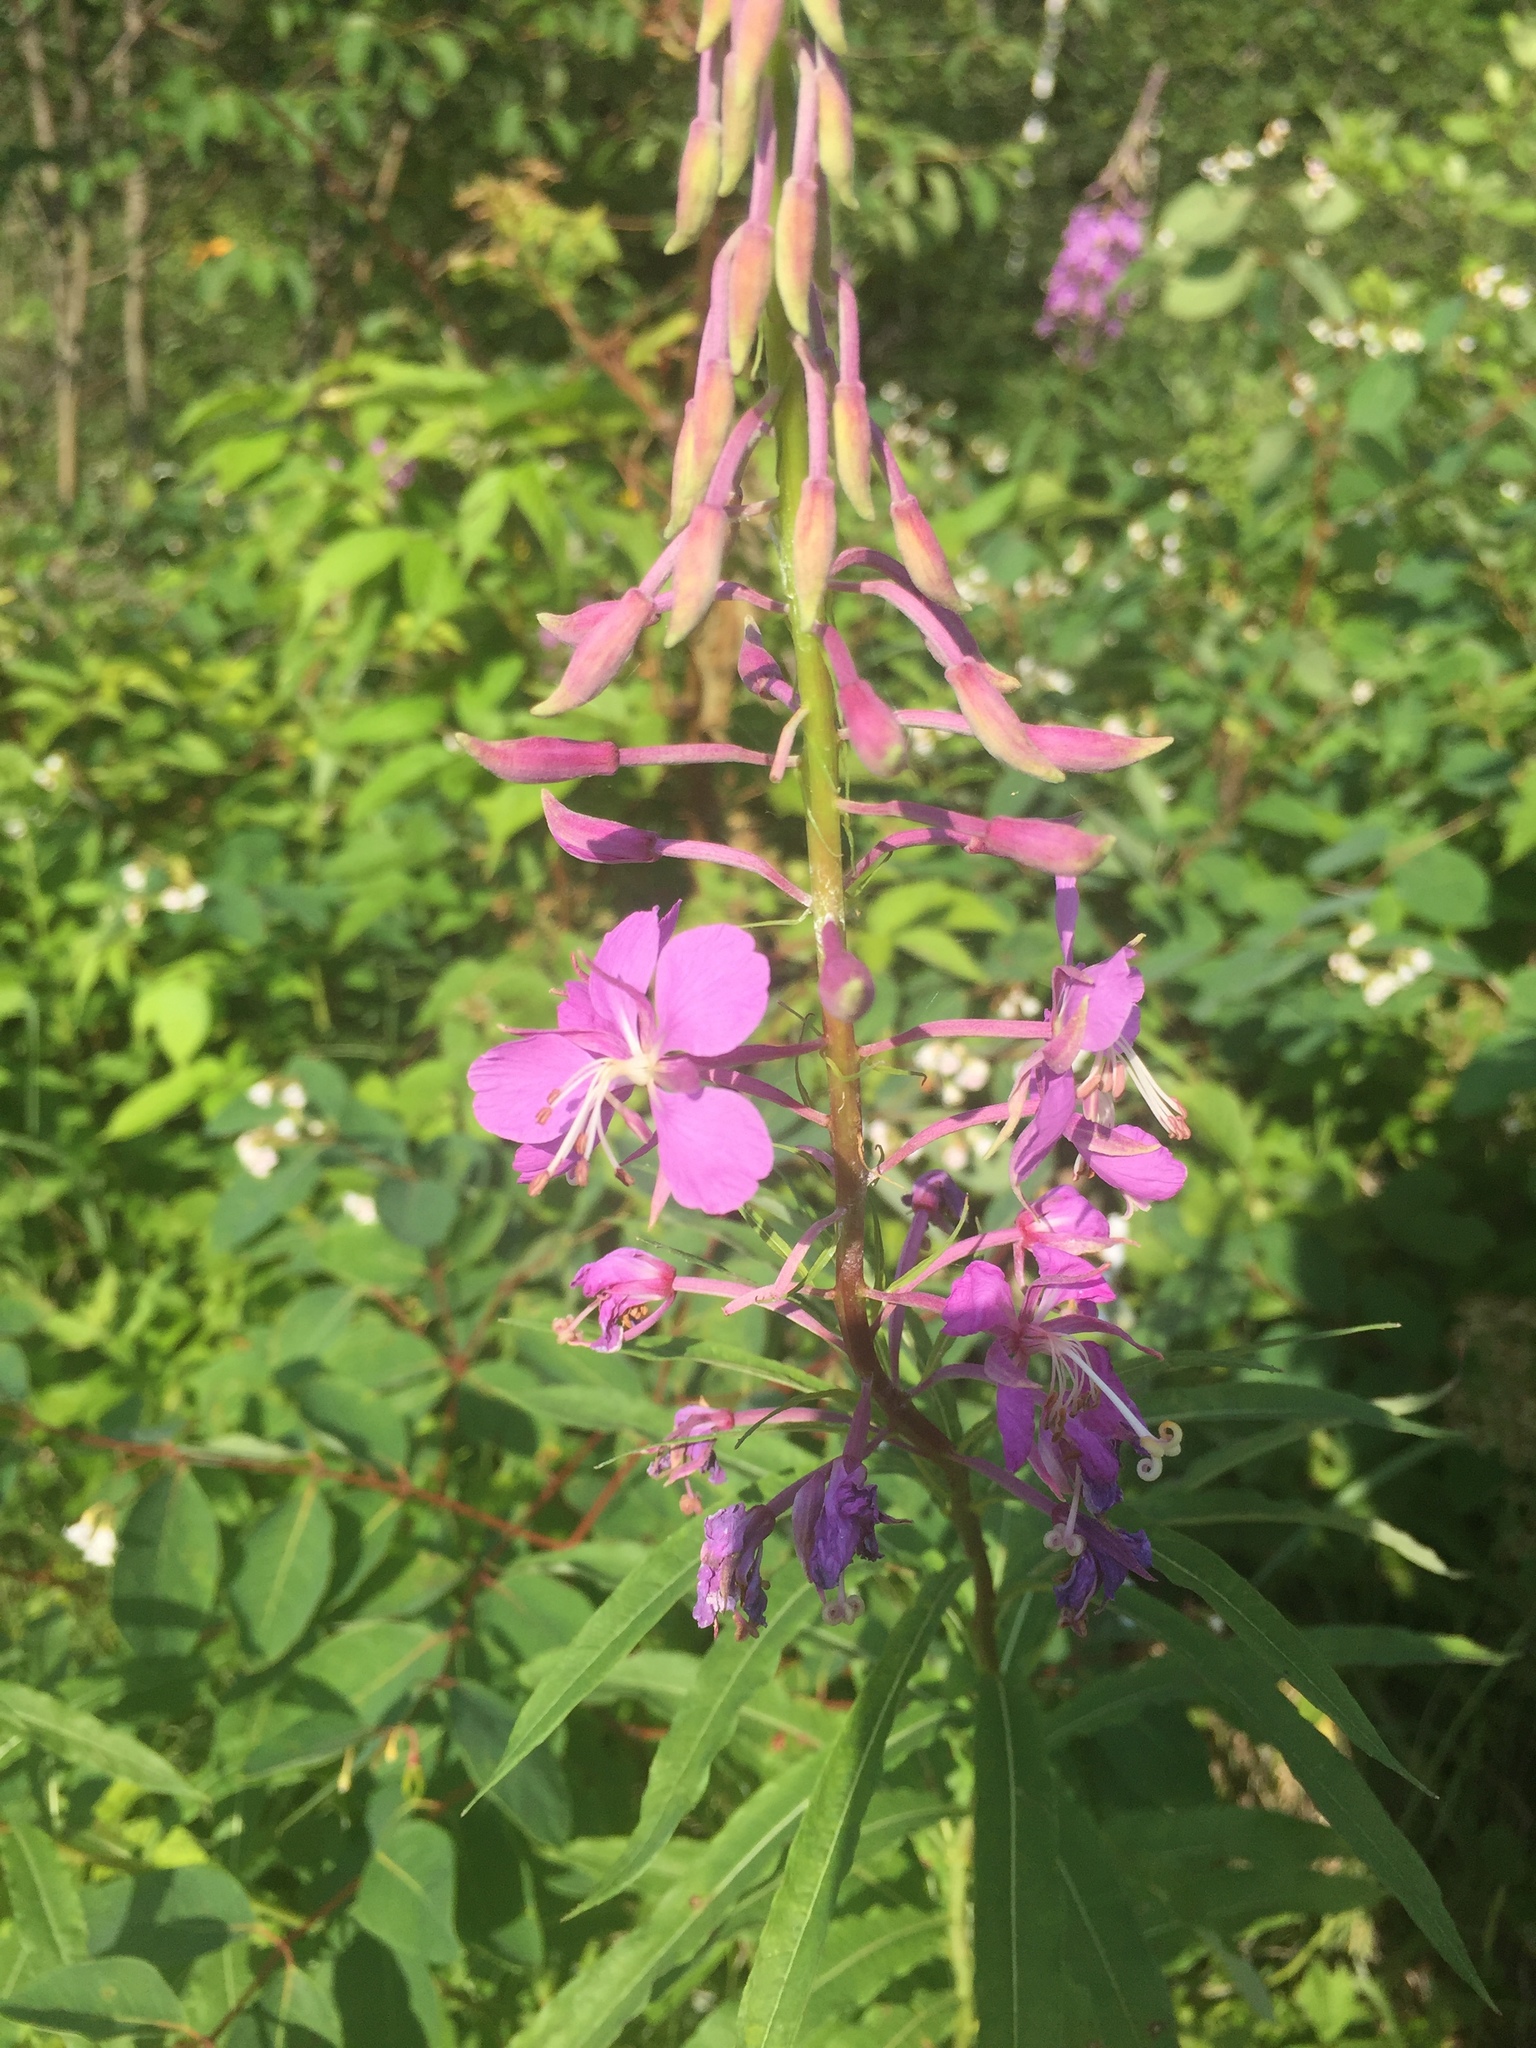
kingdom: Plantae
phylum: Tracheophyta
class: Magnoliopsida
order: Myrtales
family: Onagraceae
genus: Chamaenerion
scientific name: Chamaenerion angustifolium
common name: Fireweed
